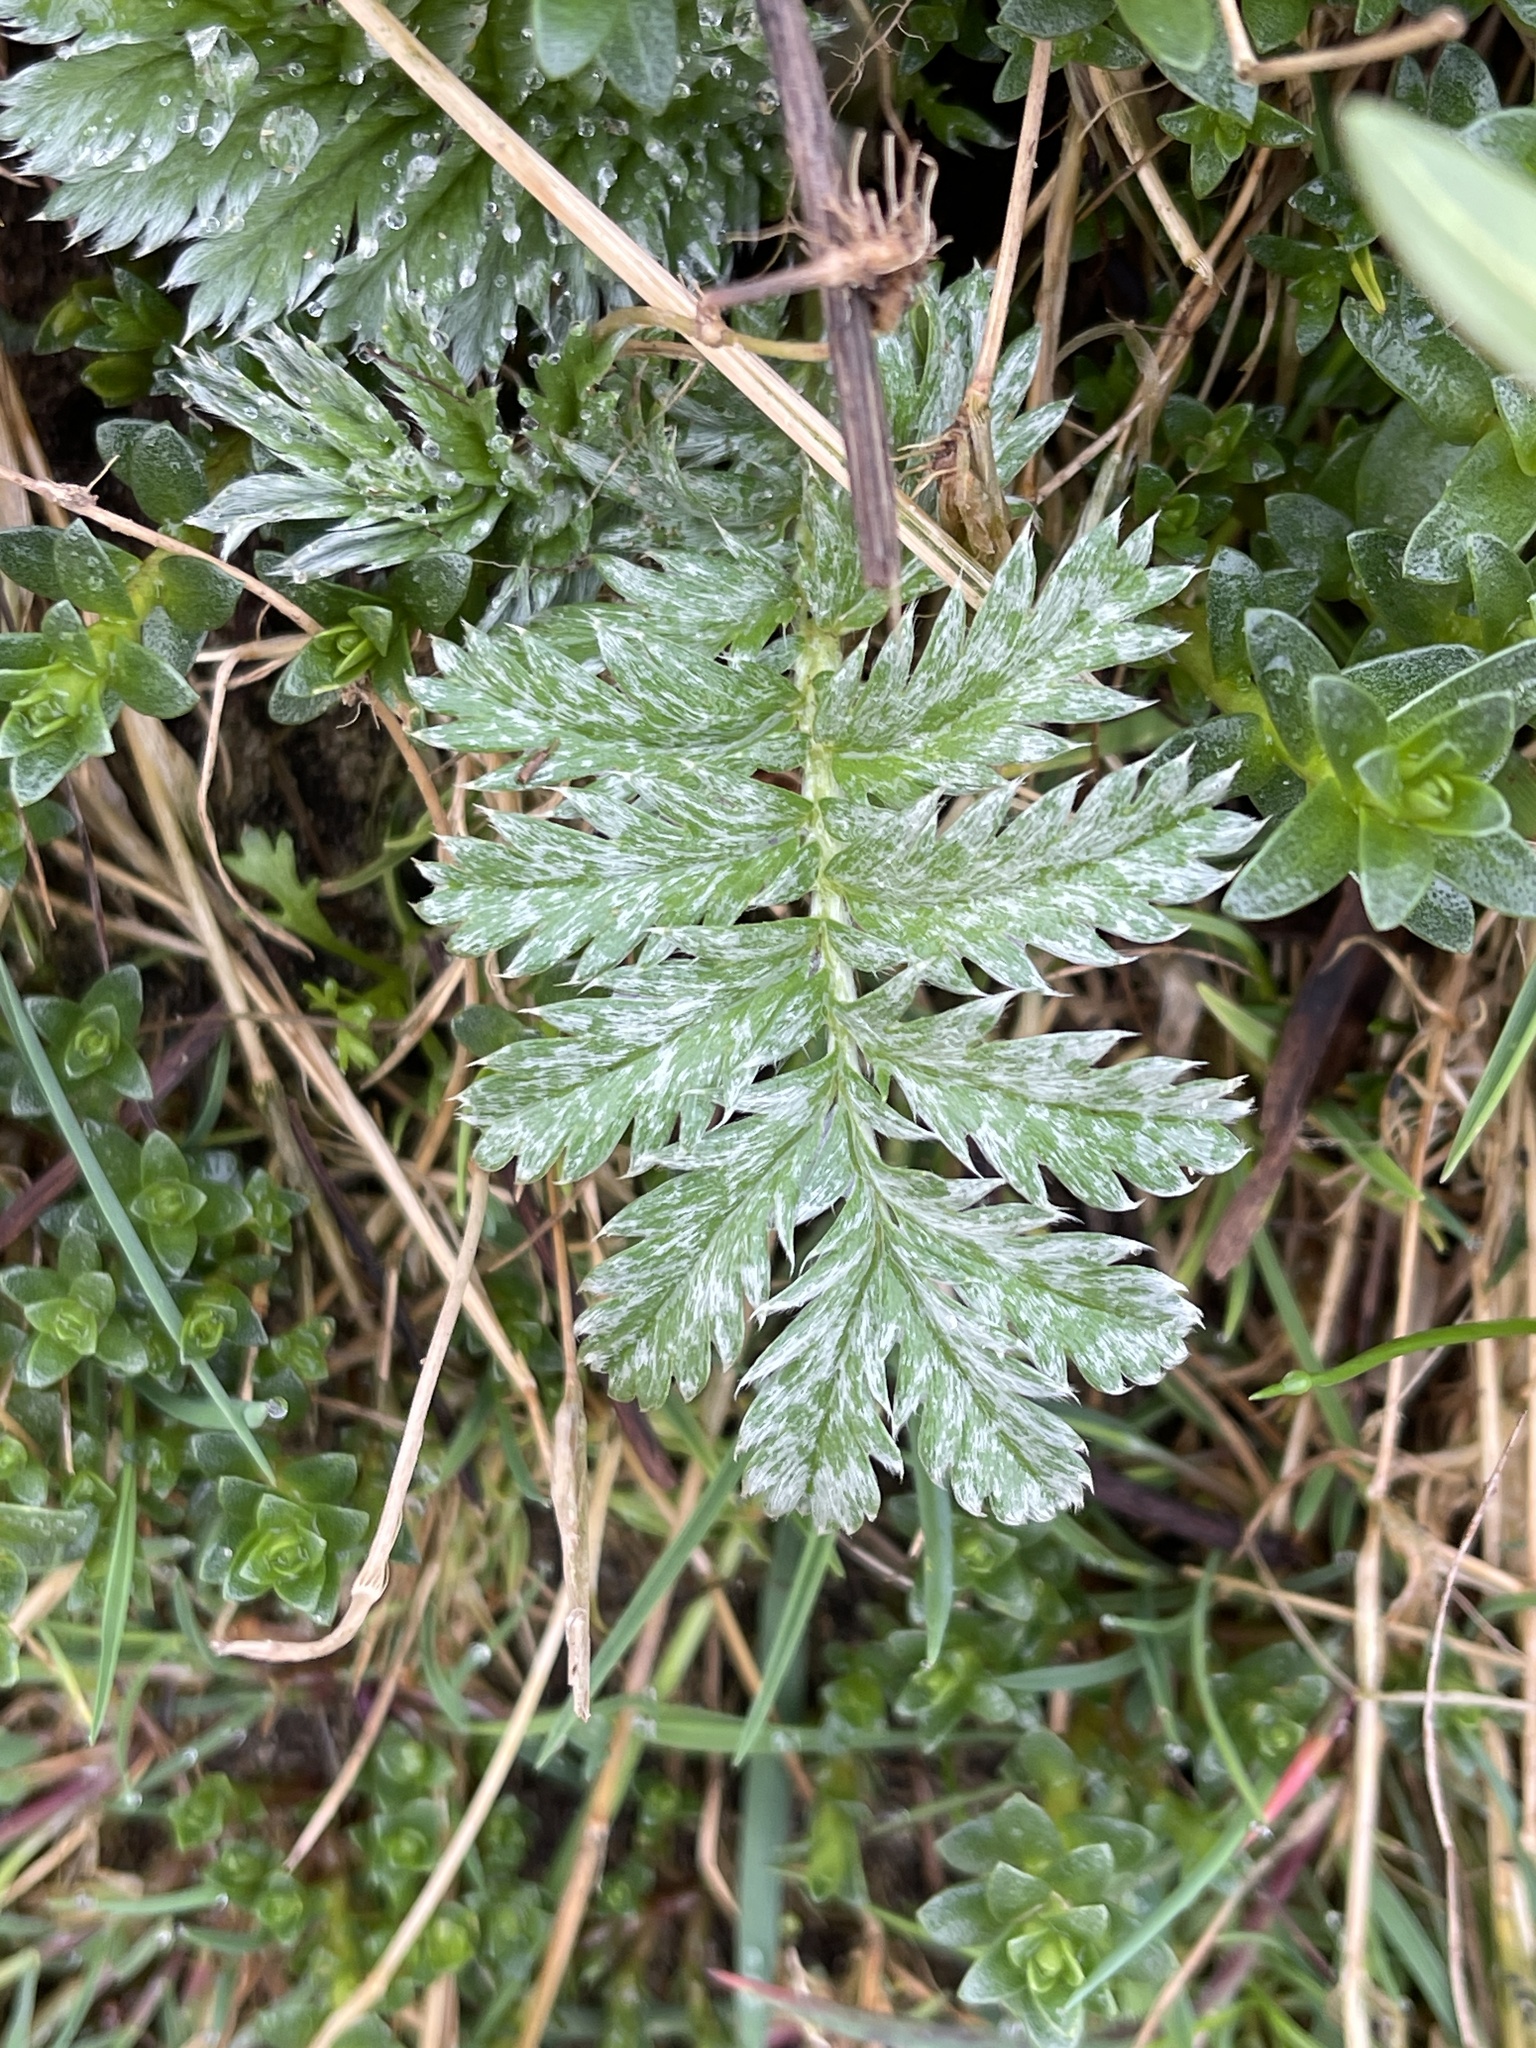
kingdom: Plantae
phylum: Tracheophyta
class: Magnoliopsida
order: Rosales
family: Rosaceae
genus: Argentina
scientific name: Argentina anserina
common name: Common silverweed
